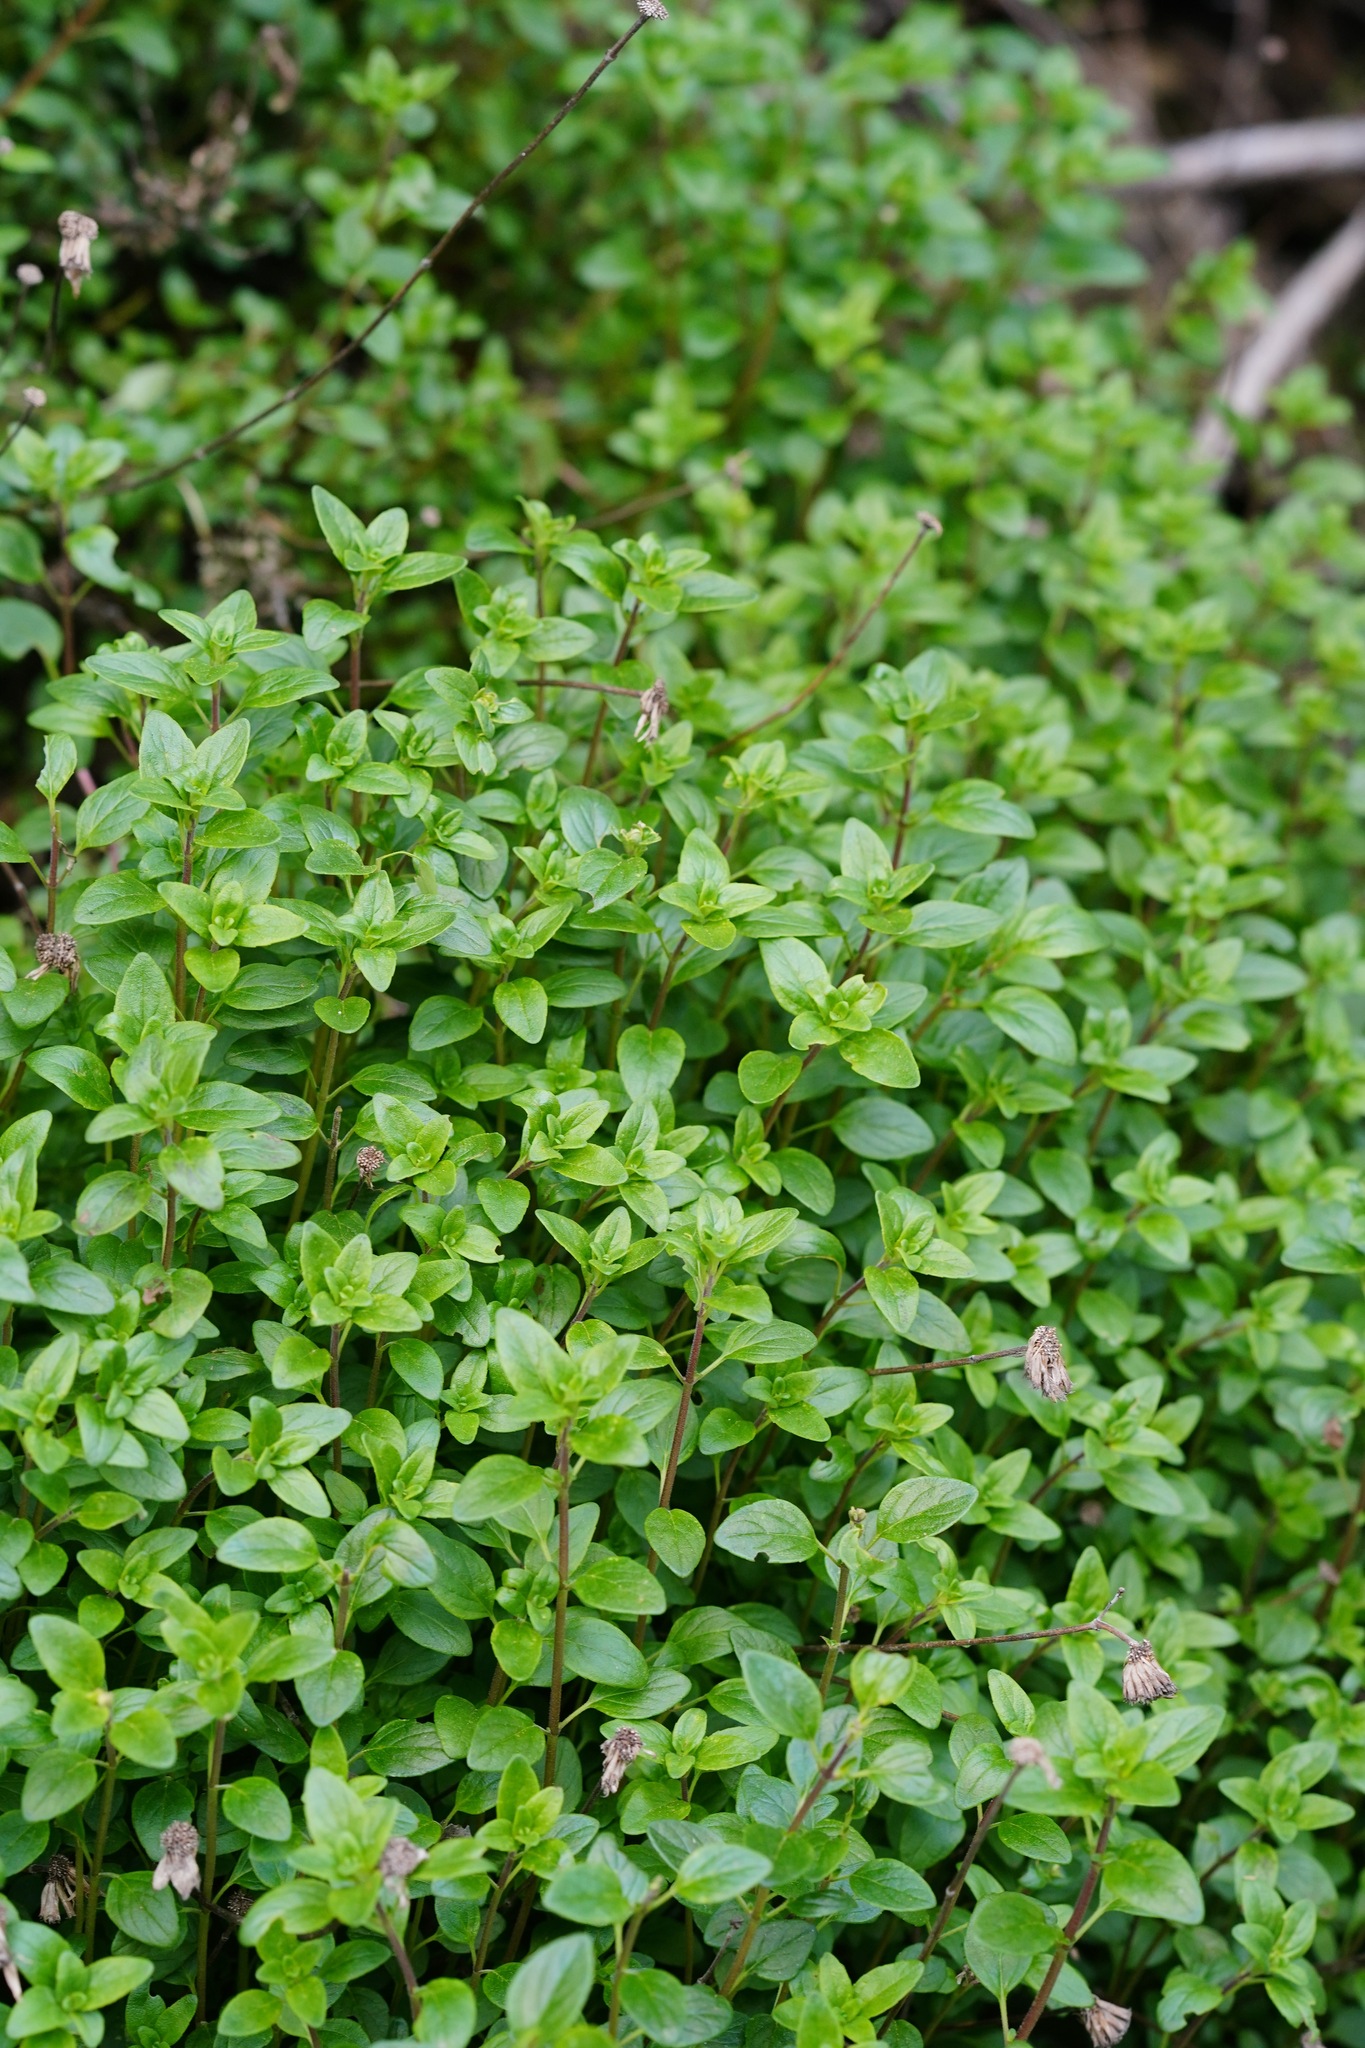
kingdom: Plantae
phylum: Tracheophyta
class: Magnoliopsida
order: Lamiales
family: Lamiaceae
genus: Monardella
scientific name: Monardella odoratissima
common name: Pacific monardella
